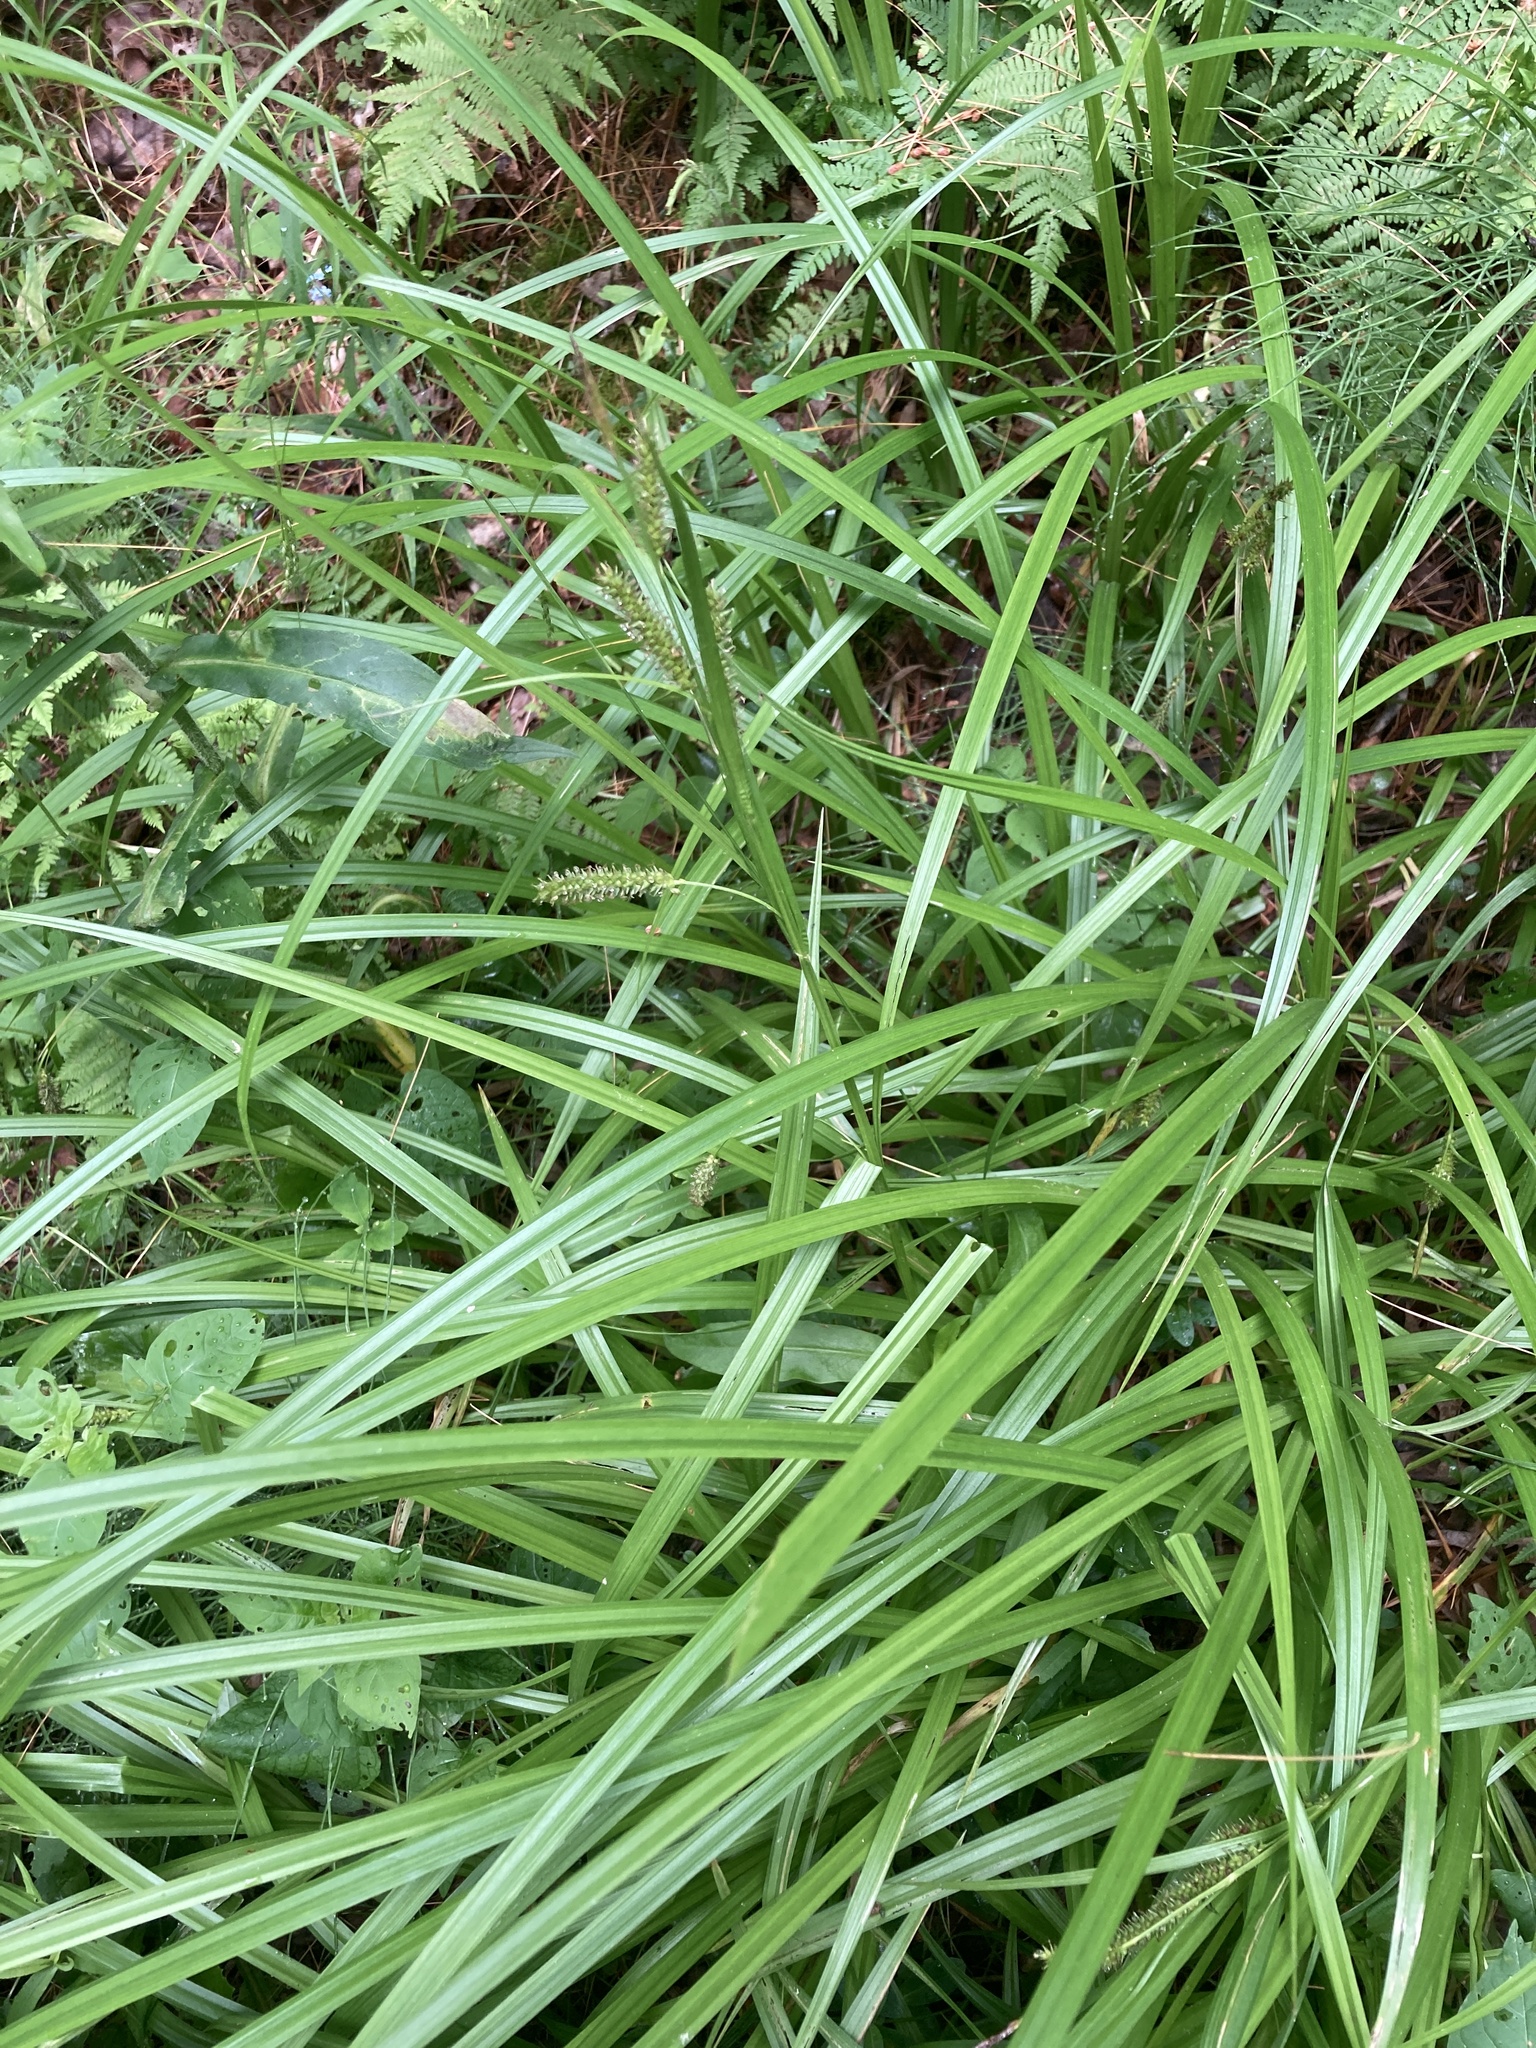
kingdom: Plantae
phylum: Tracheophyta
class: Liliopsida
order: Poales
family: Cyperaceae
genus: Carex
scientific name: Carex scabrata
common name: Eastern rough sedge
